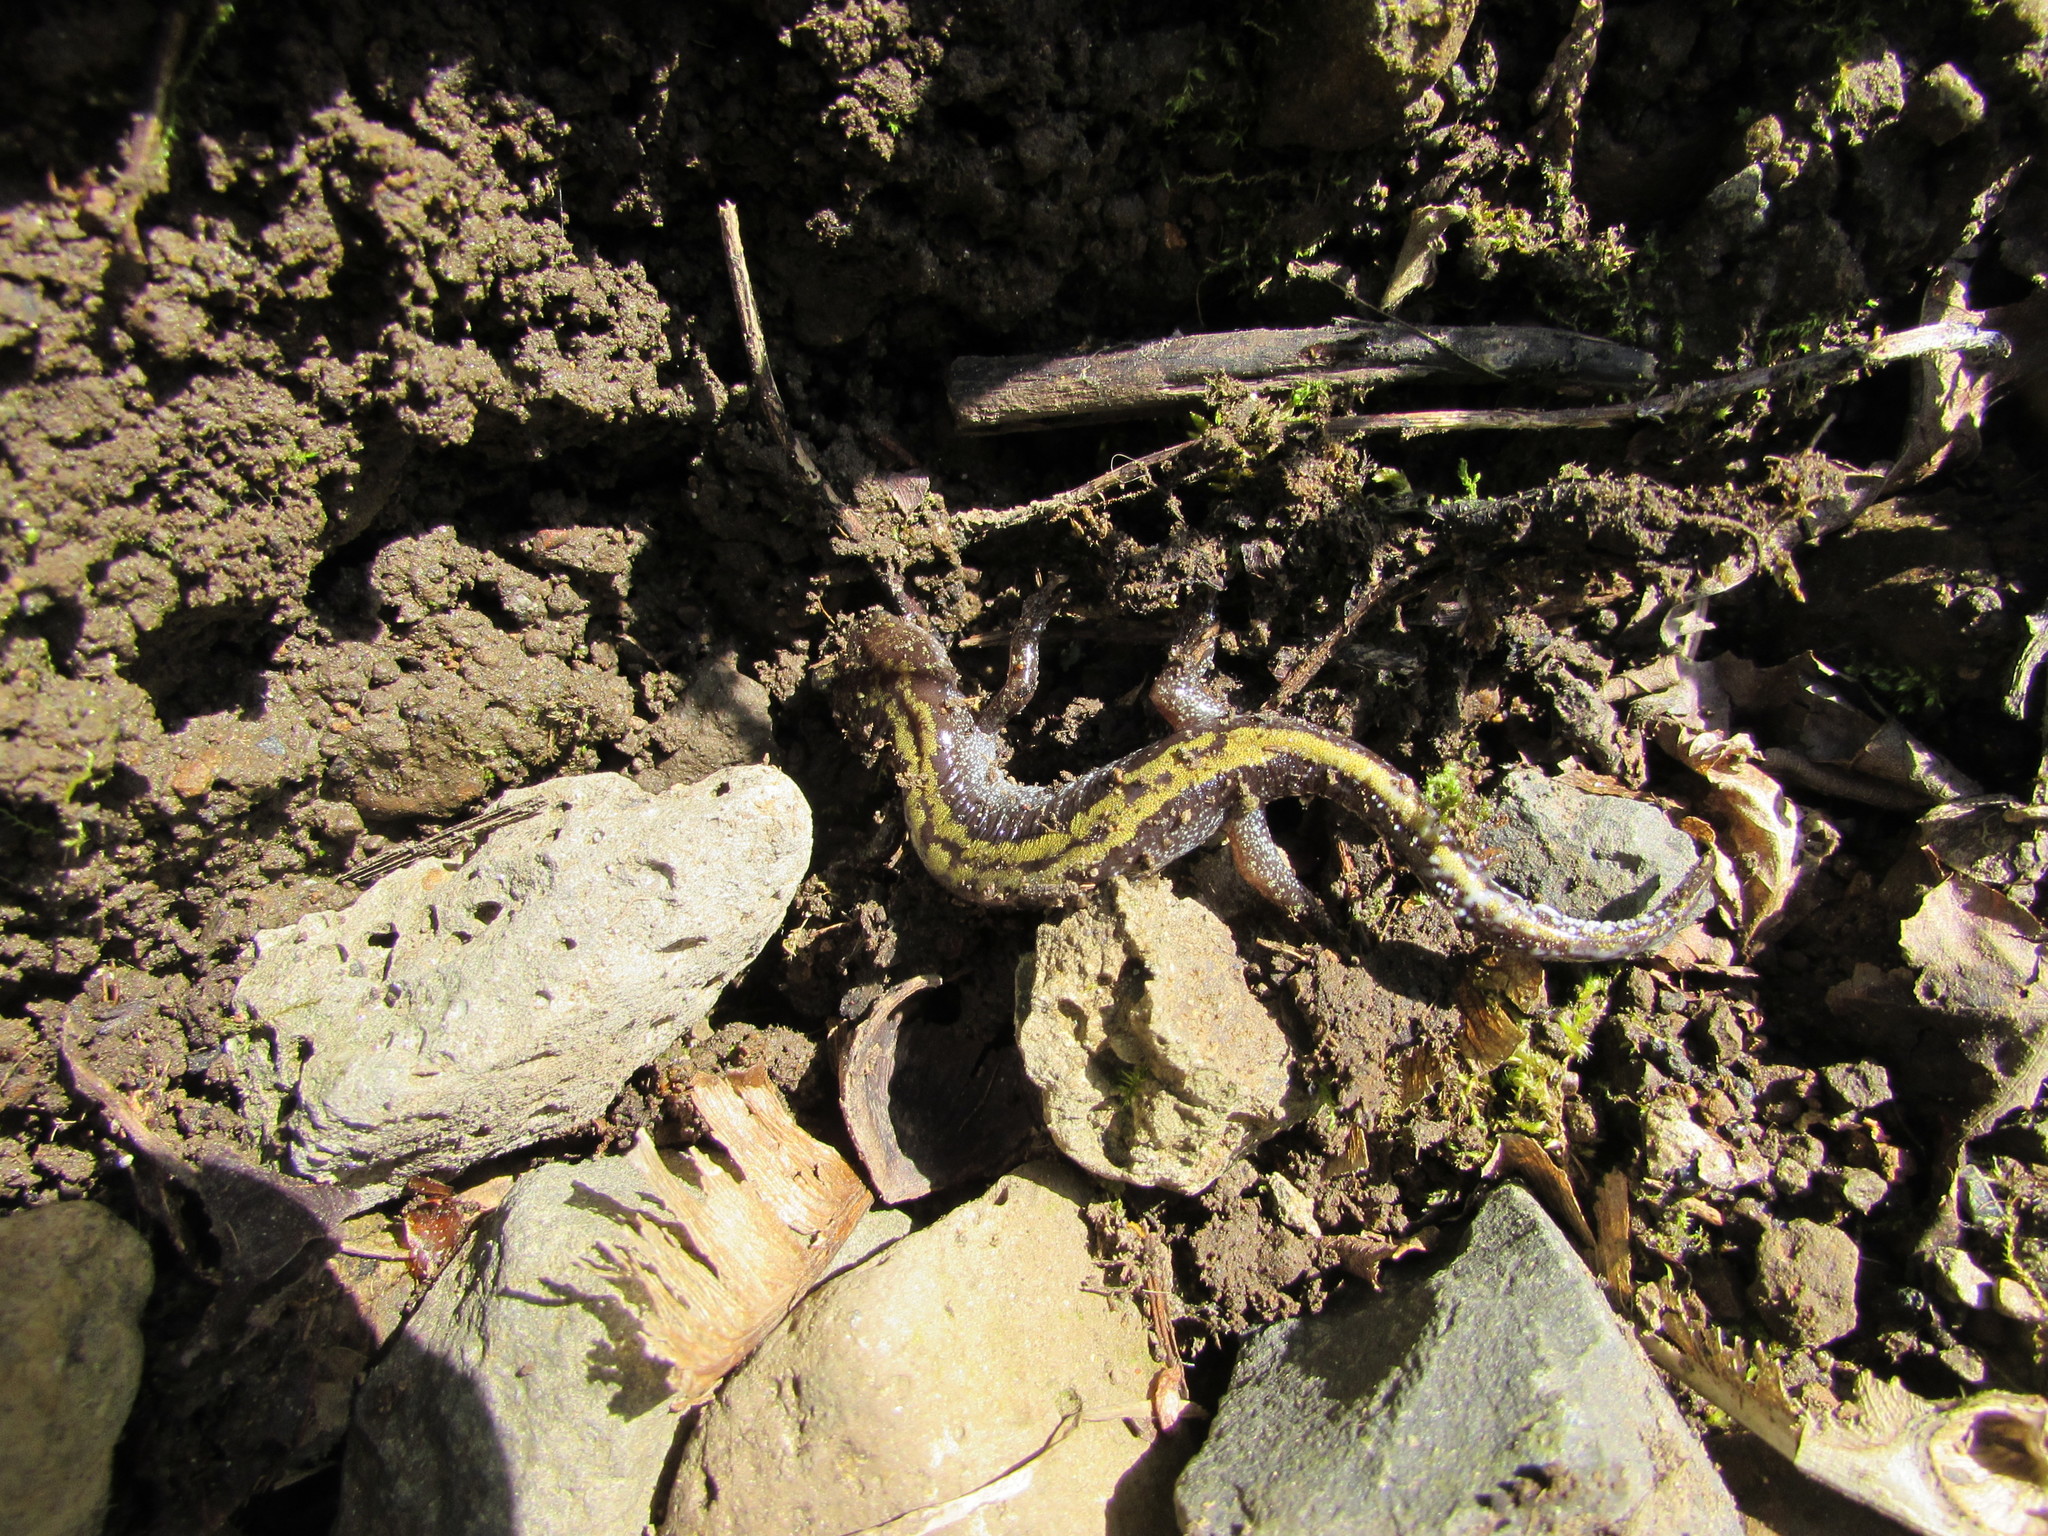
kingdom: Animalia
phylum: Chordata
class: Amphibia
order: Caudata
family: Ambystomatidae
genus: Ambystoma
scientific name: Ambystoma macrodactylum
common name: Long-toed salamander
